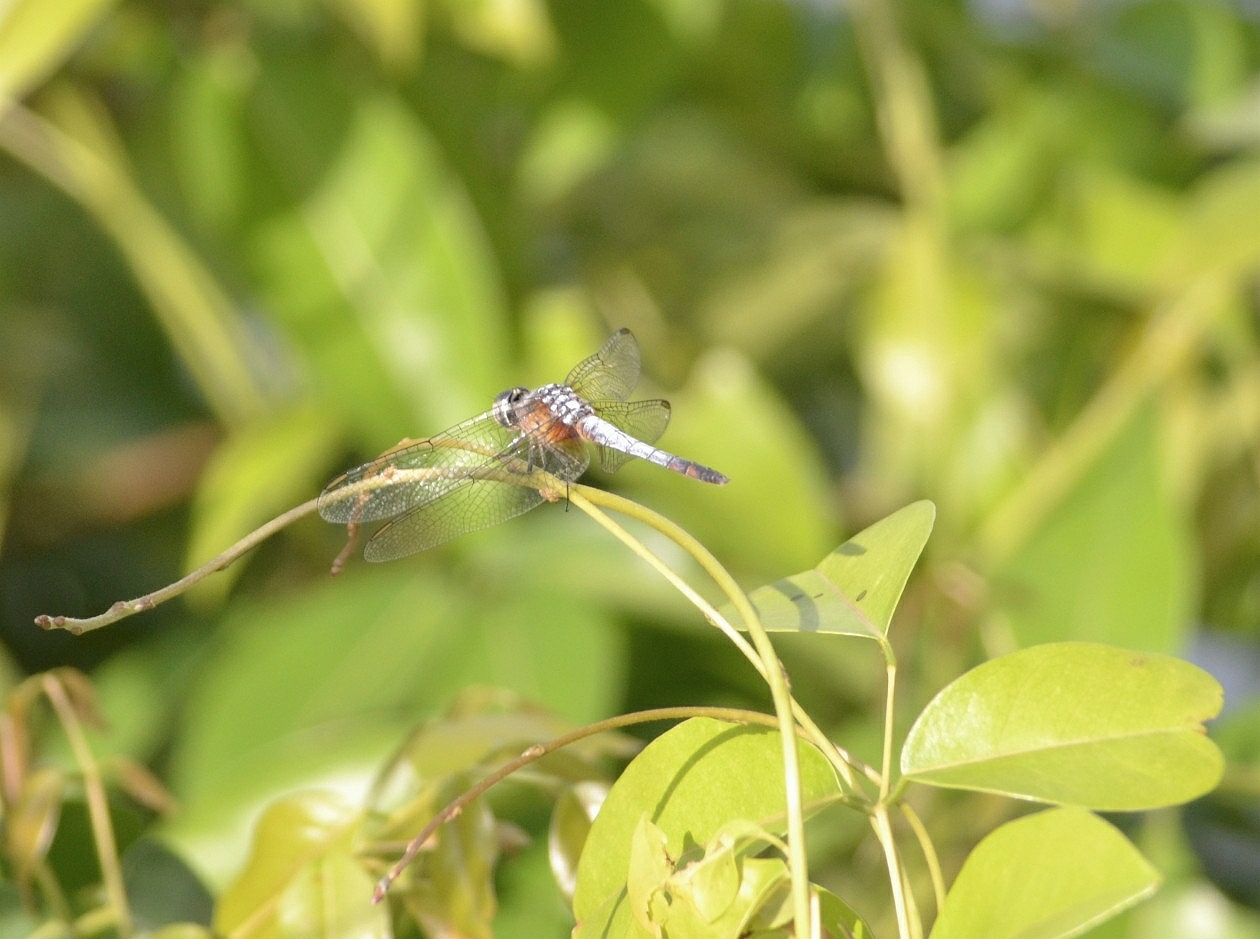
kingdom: Animalia
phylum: Arthropoda
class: Insecta
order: Odonata
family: Libellulidae
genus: Brachydiplax
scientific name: Brachydiplax chalybea
